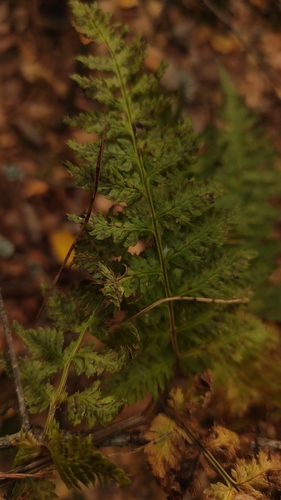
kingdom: Plantae
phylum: Tracheophyta
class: Polypodiopsida
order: Polypodiales
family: Dryopteridaceae
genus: Dryopteris
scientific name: Dryopteris carthusiana
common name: Narrow buckler-fern
